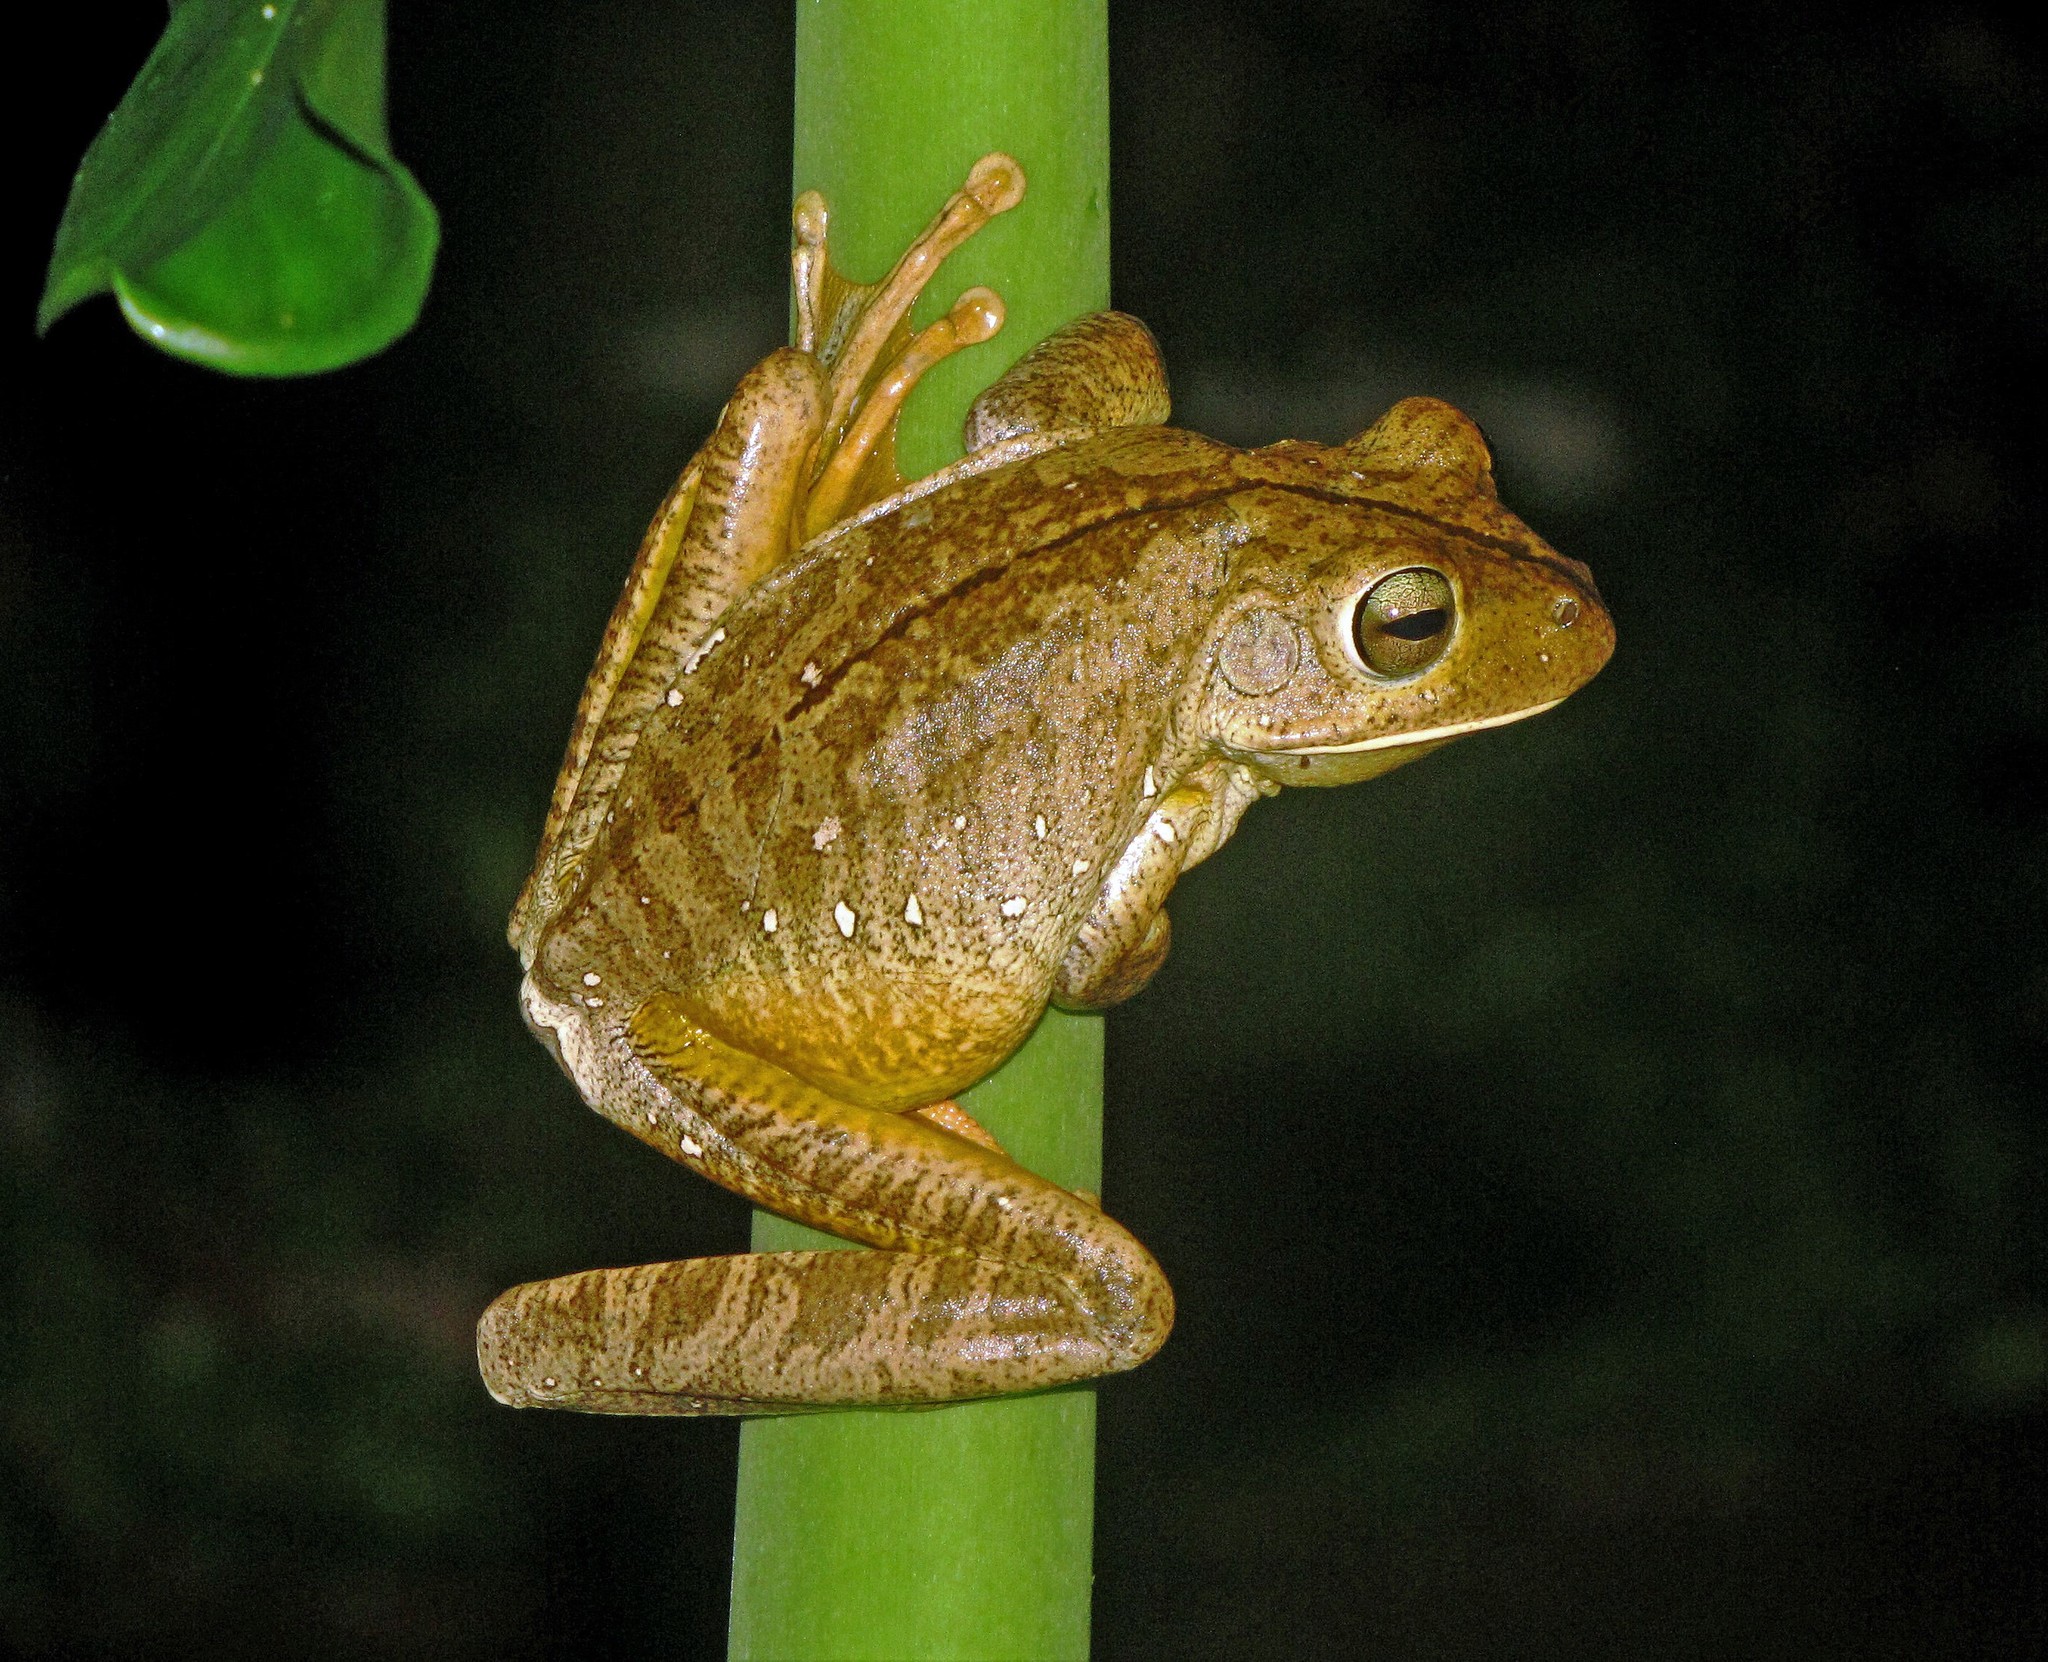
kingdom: Animalia
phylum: Chordata
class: Amphibia
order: Anura
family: Hylidae
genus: Boana
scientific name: Boana faber
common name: Blacksmith tree frog
